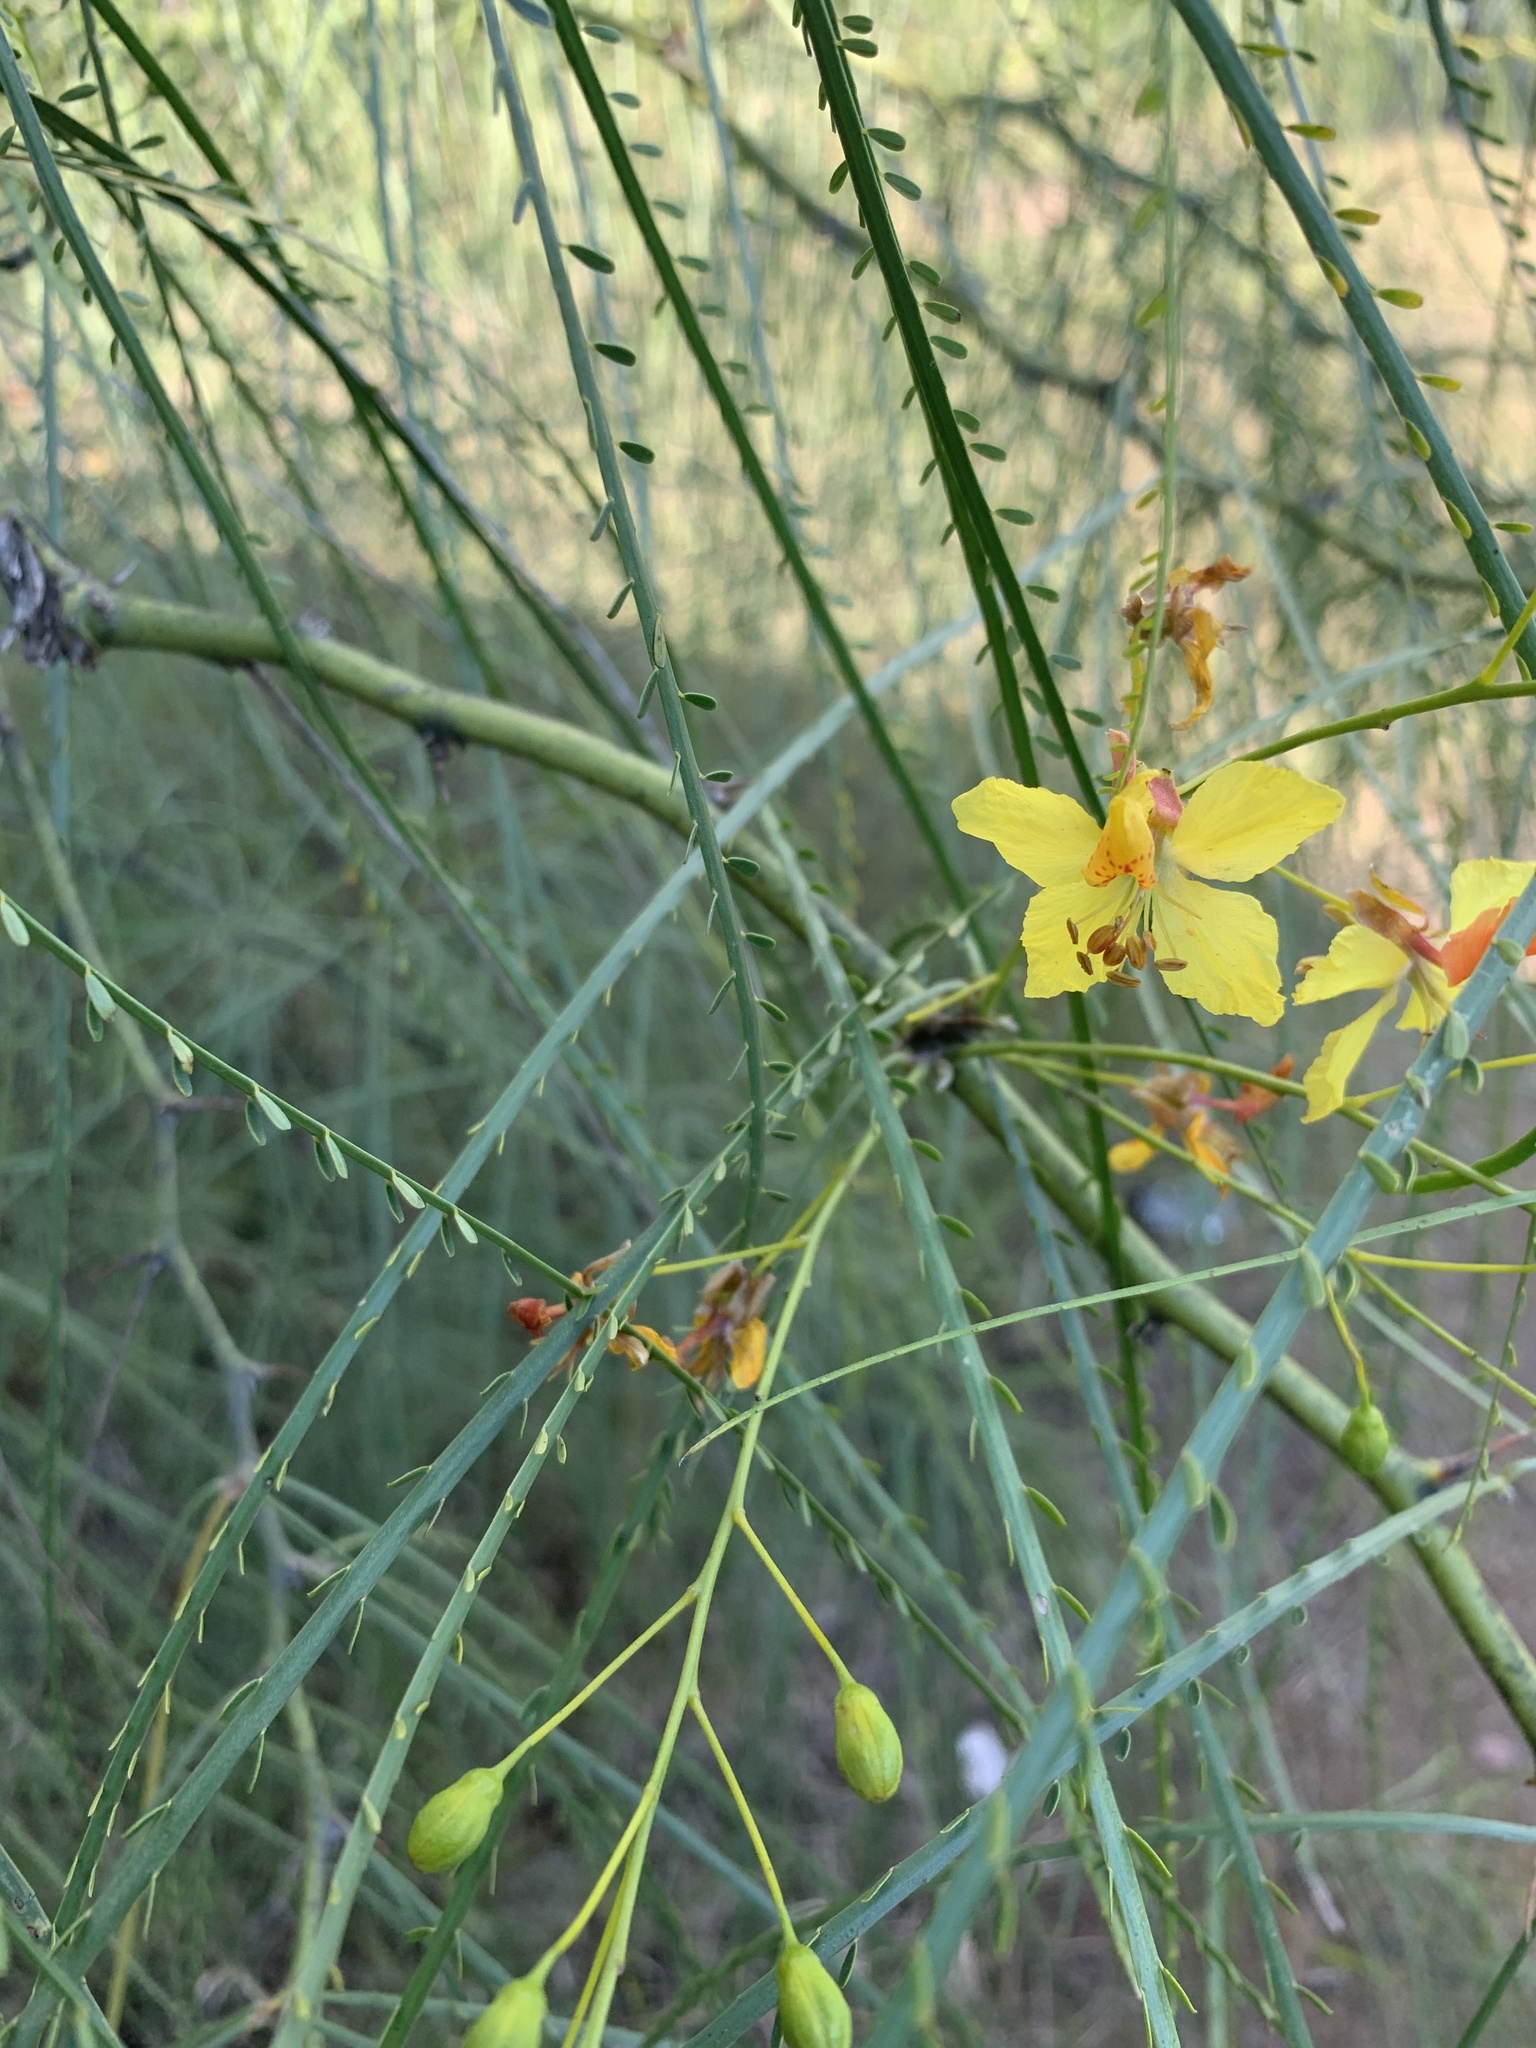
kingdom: Plantae
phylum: Tracheophyta
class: Magnoliopsida
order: Fabales
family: Fabaceae
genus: Parkinsonia
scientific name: Parkinsonia aculeata
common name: Jerusalem thorn
